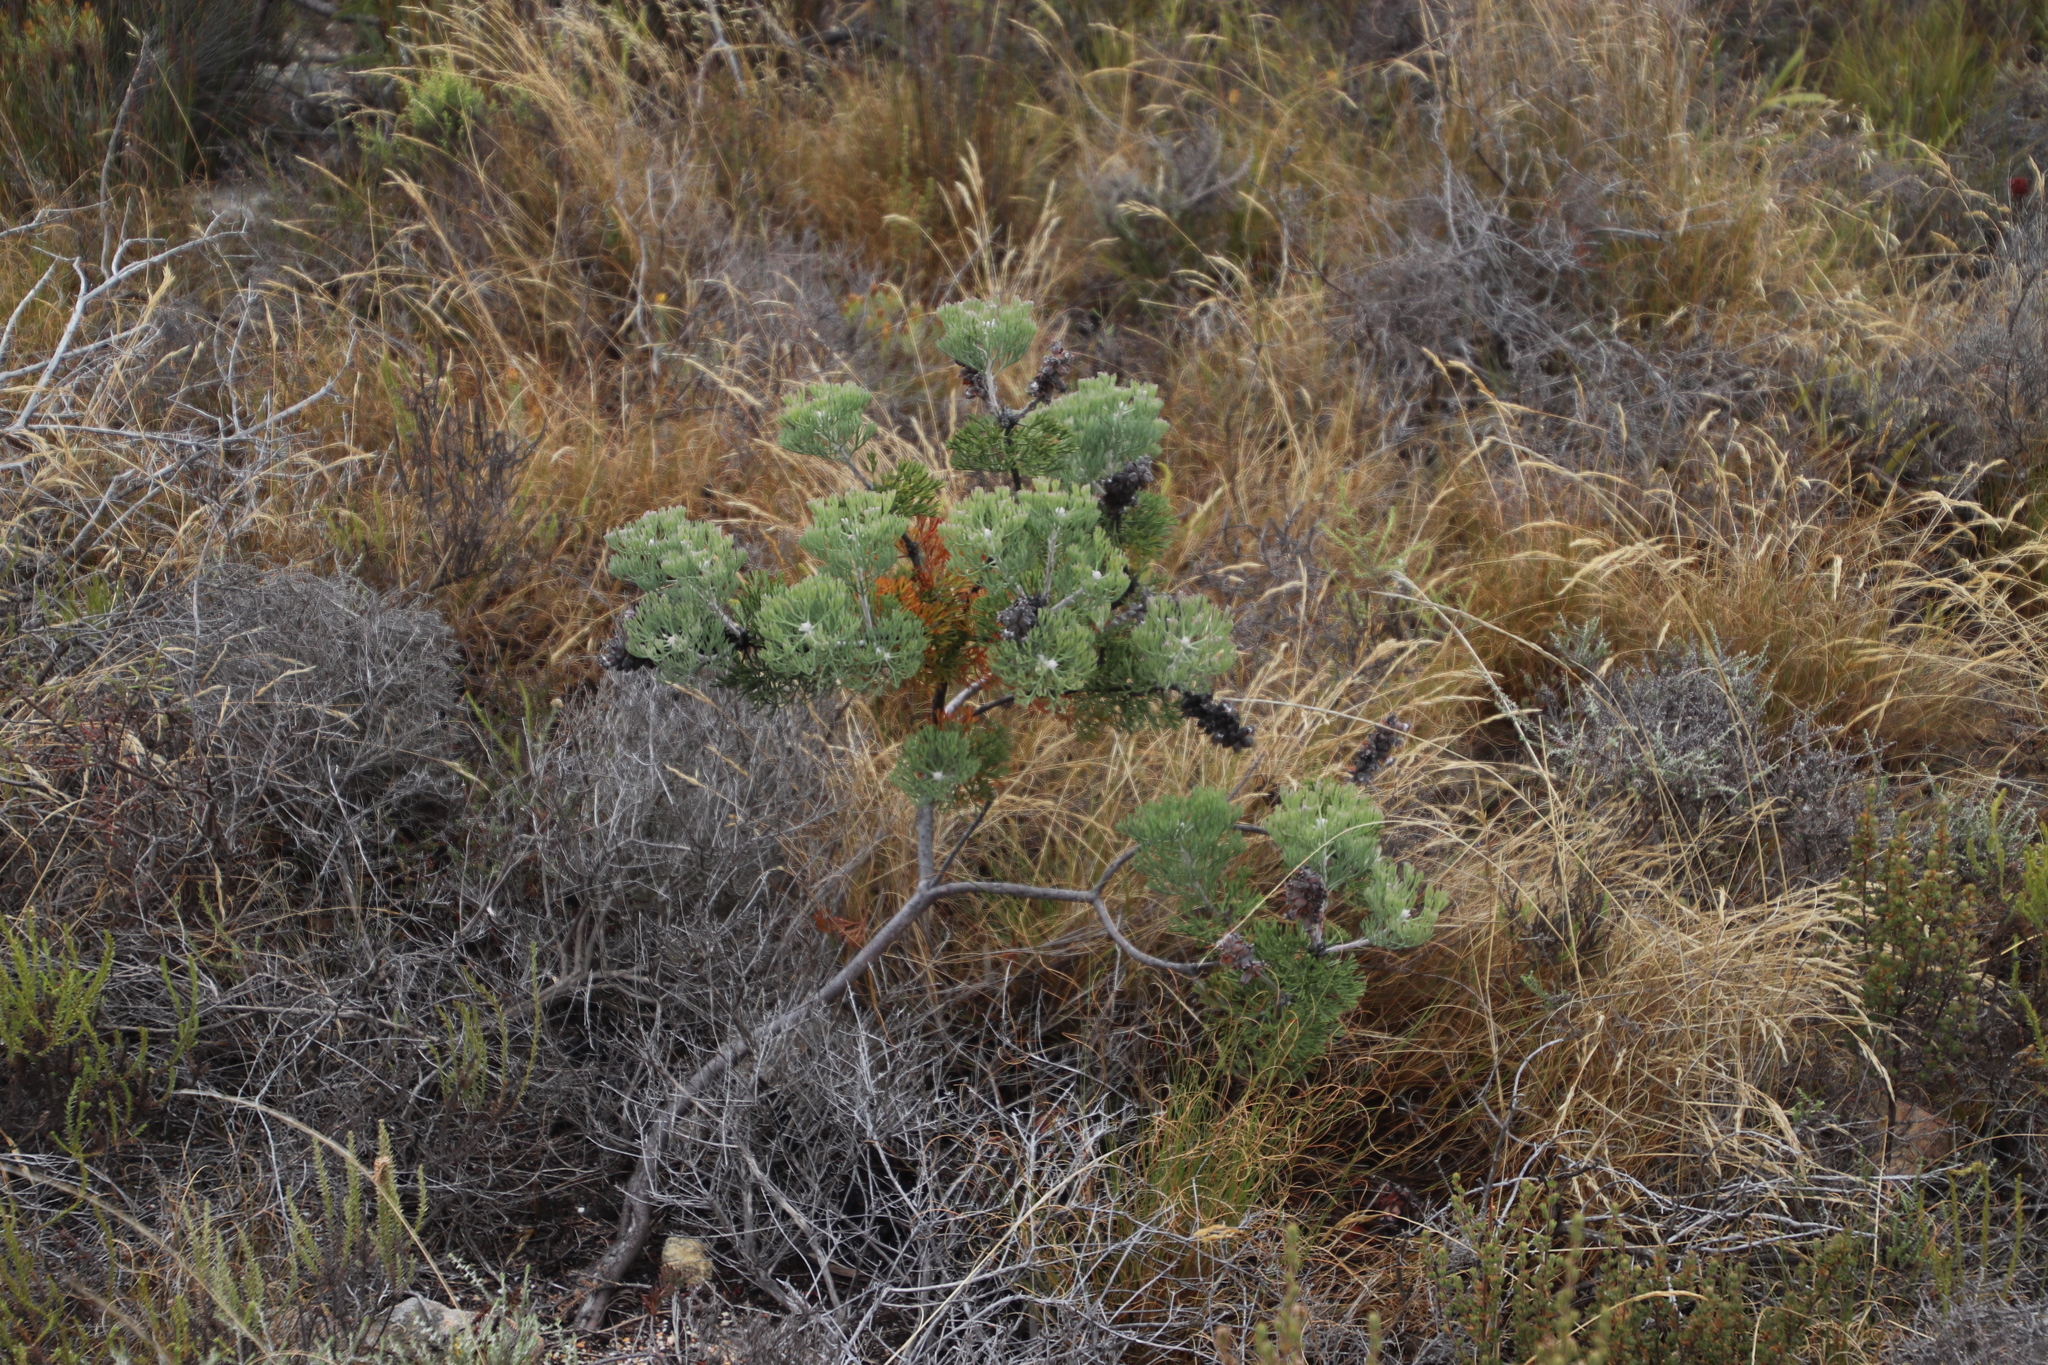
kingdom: Plantae
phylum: Tracheophyta
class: Magnoliopsida
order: Proteales
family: Proteaceae
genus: Paranomus
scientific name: Paranomus bolusii
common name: Overberg sceptre
